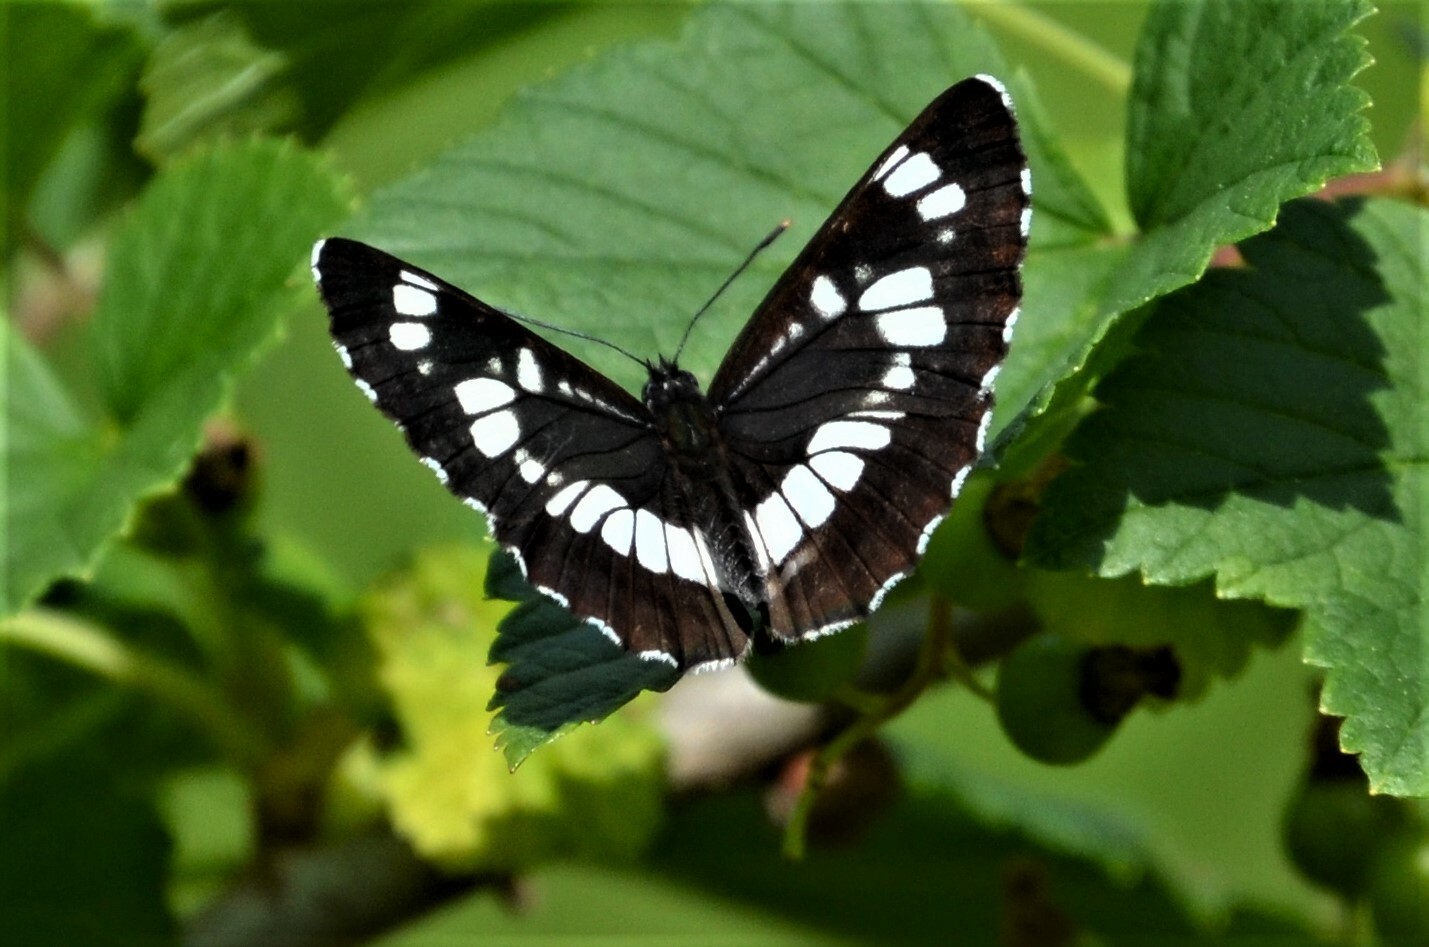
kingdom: Animalia
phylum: Arthropoda
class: Insecta
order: Lepidoptera
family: Nymphalidae
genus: Neptis
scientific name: Neptis rivularis
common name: Hungarian glider
